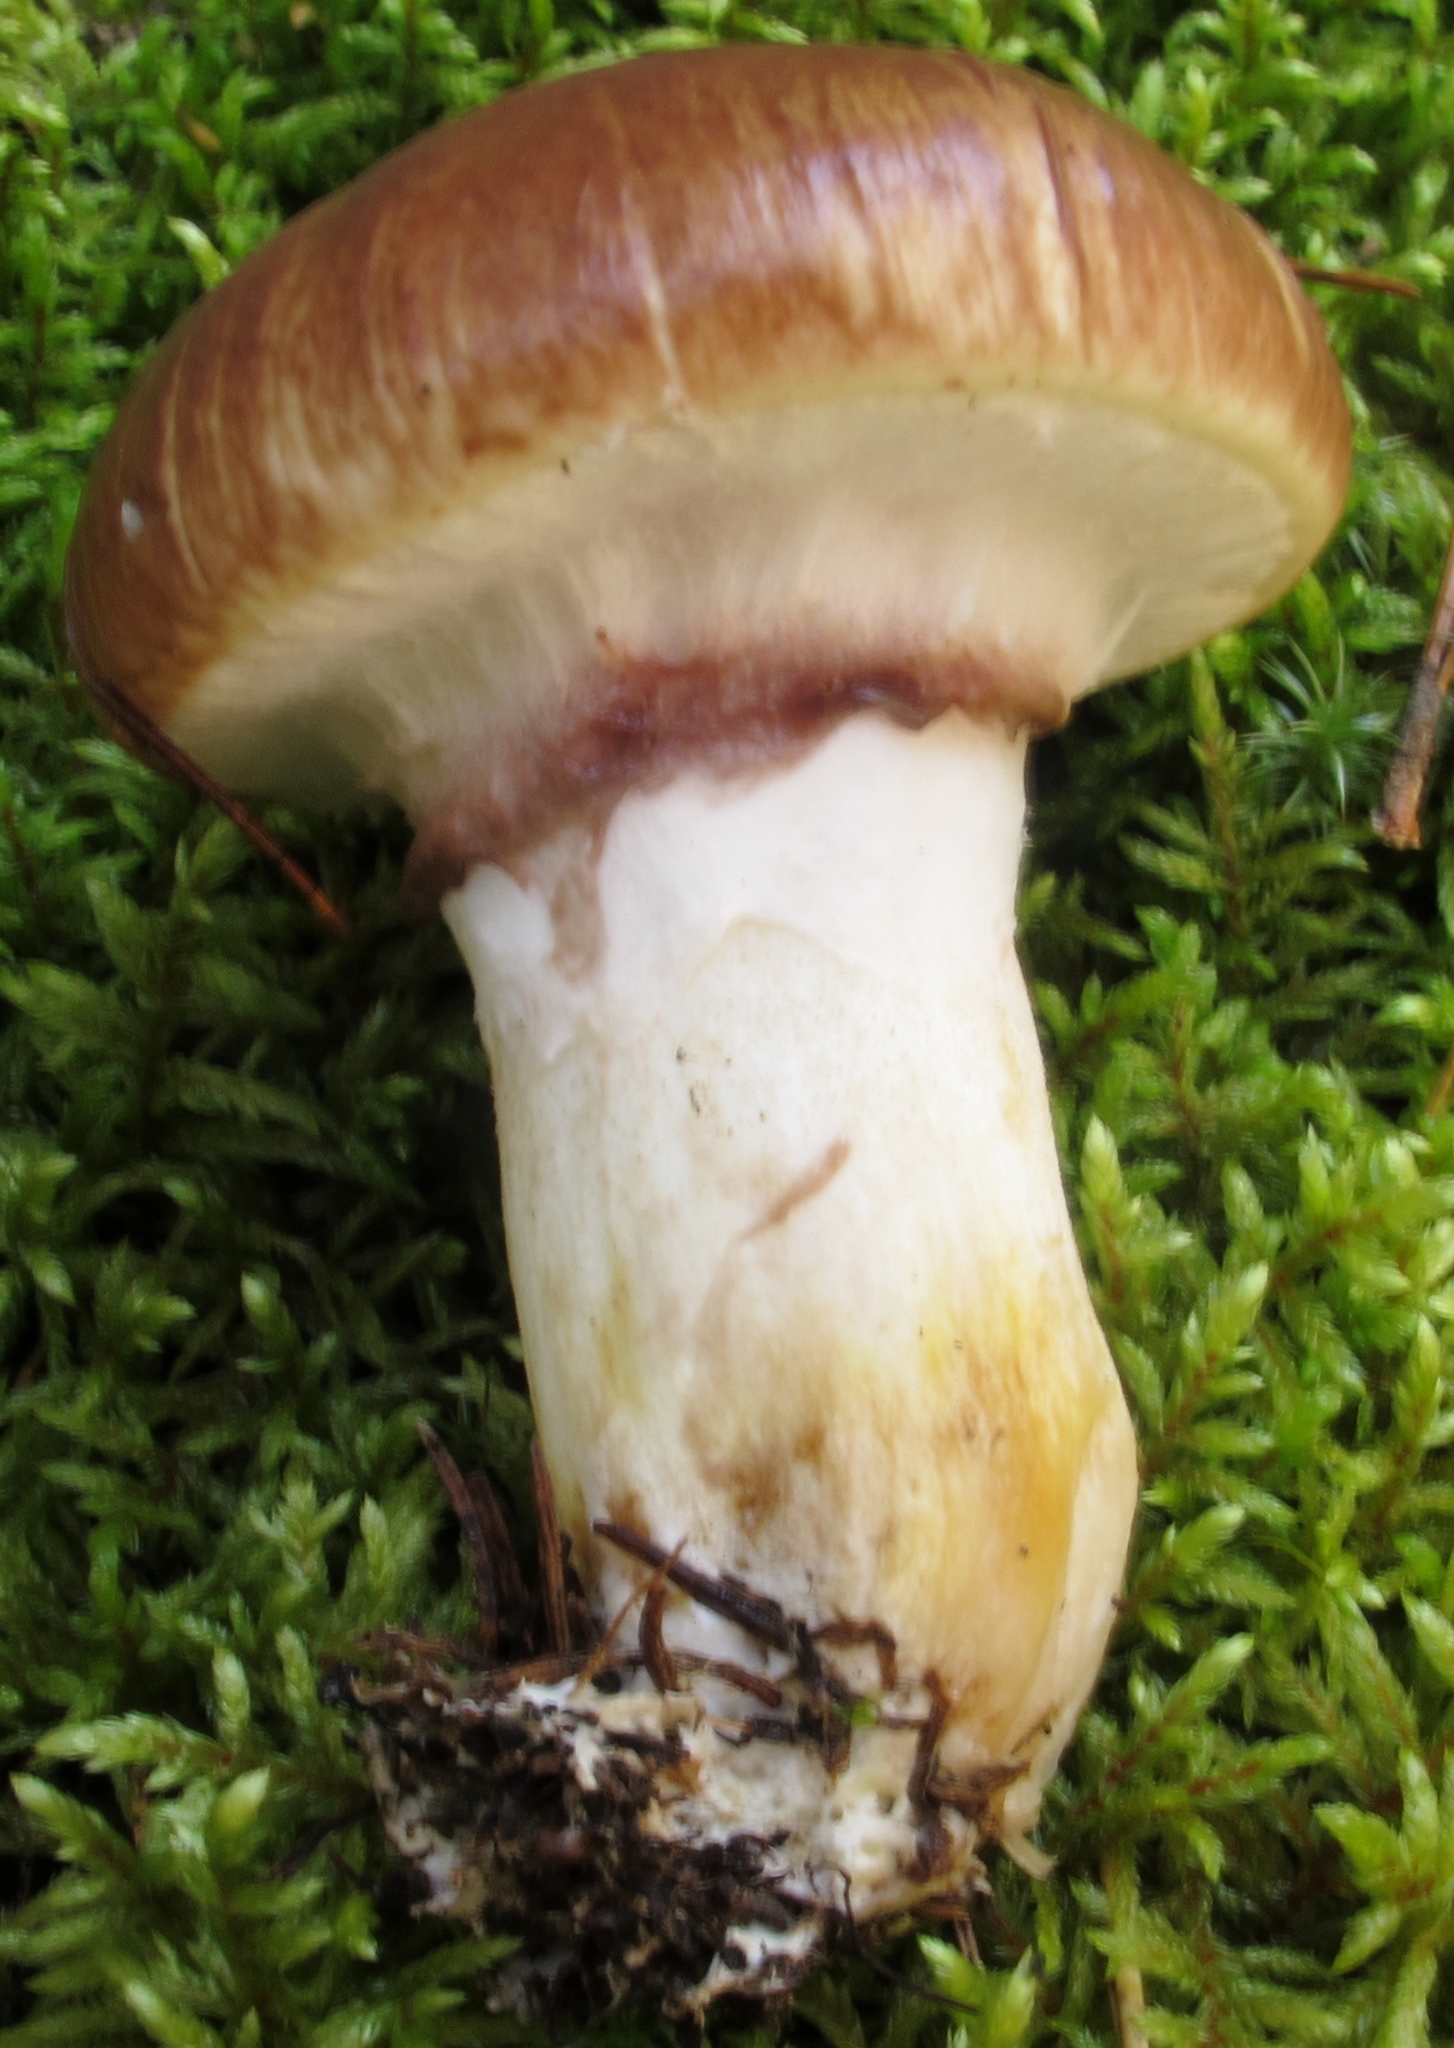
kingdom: Fungi
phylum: Basidiomycota
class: Agaricomycetes
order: Boletales
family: Suillaceae
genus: Suillus
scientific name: Suillus luteus
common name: Slippery jack
